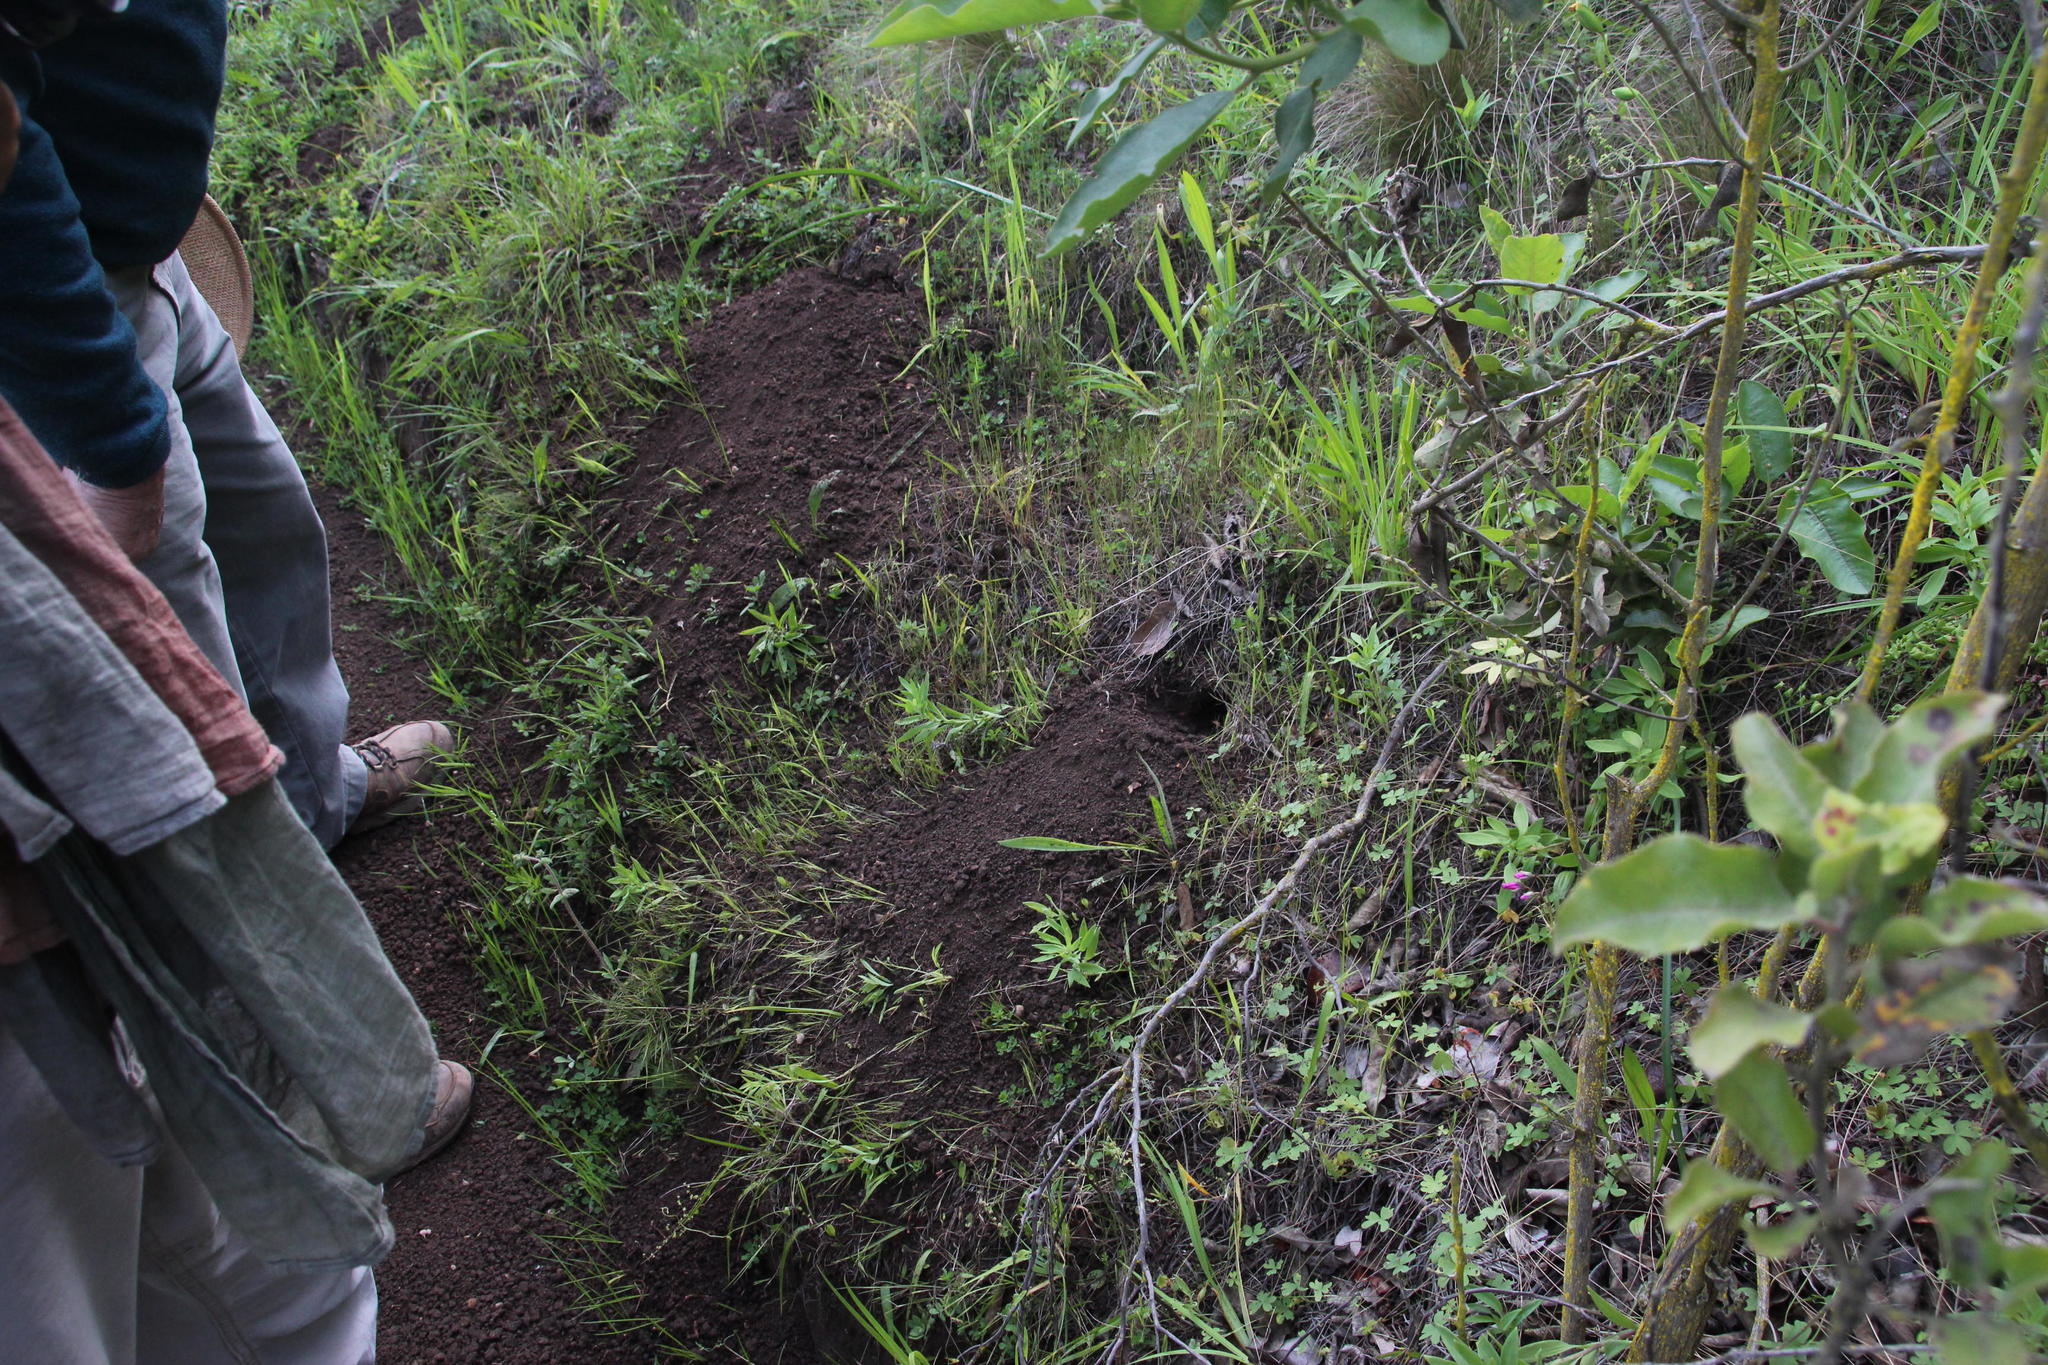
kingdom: Animalia
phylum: Chordata
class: Mammalia
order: Rodentia
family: Octodontidae
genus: Spalacopus
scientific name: Spalacopus cyanus
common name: Coruro
